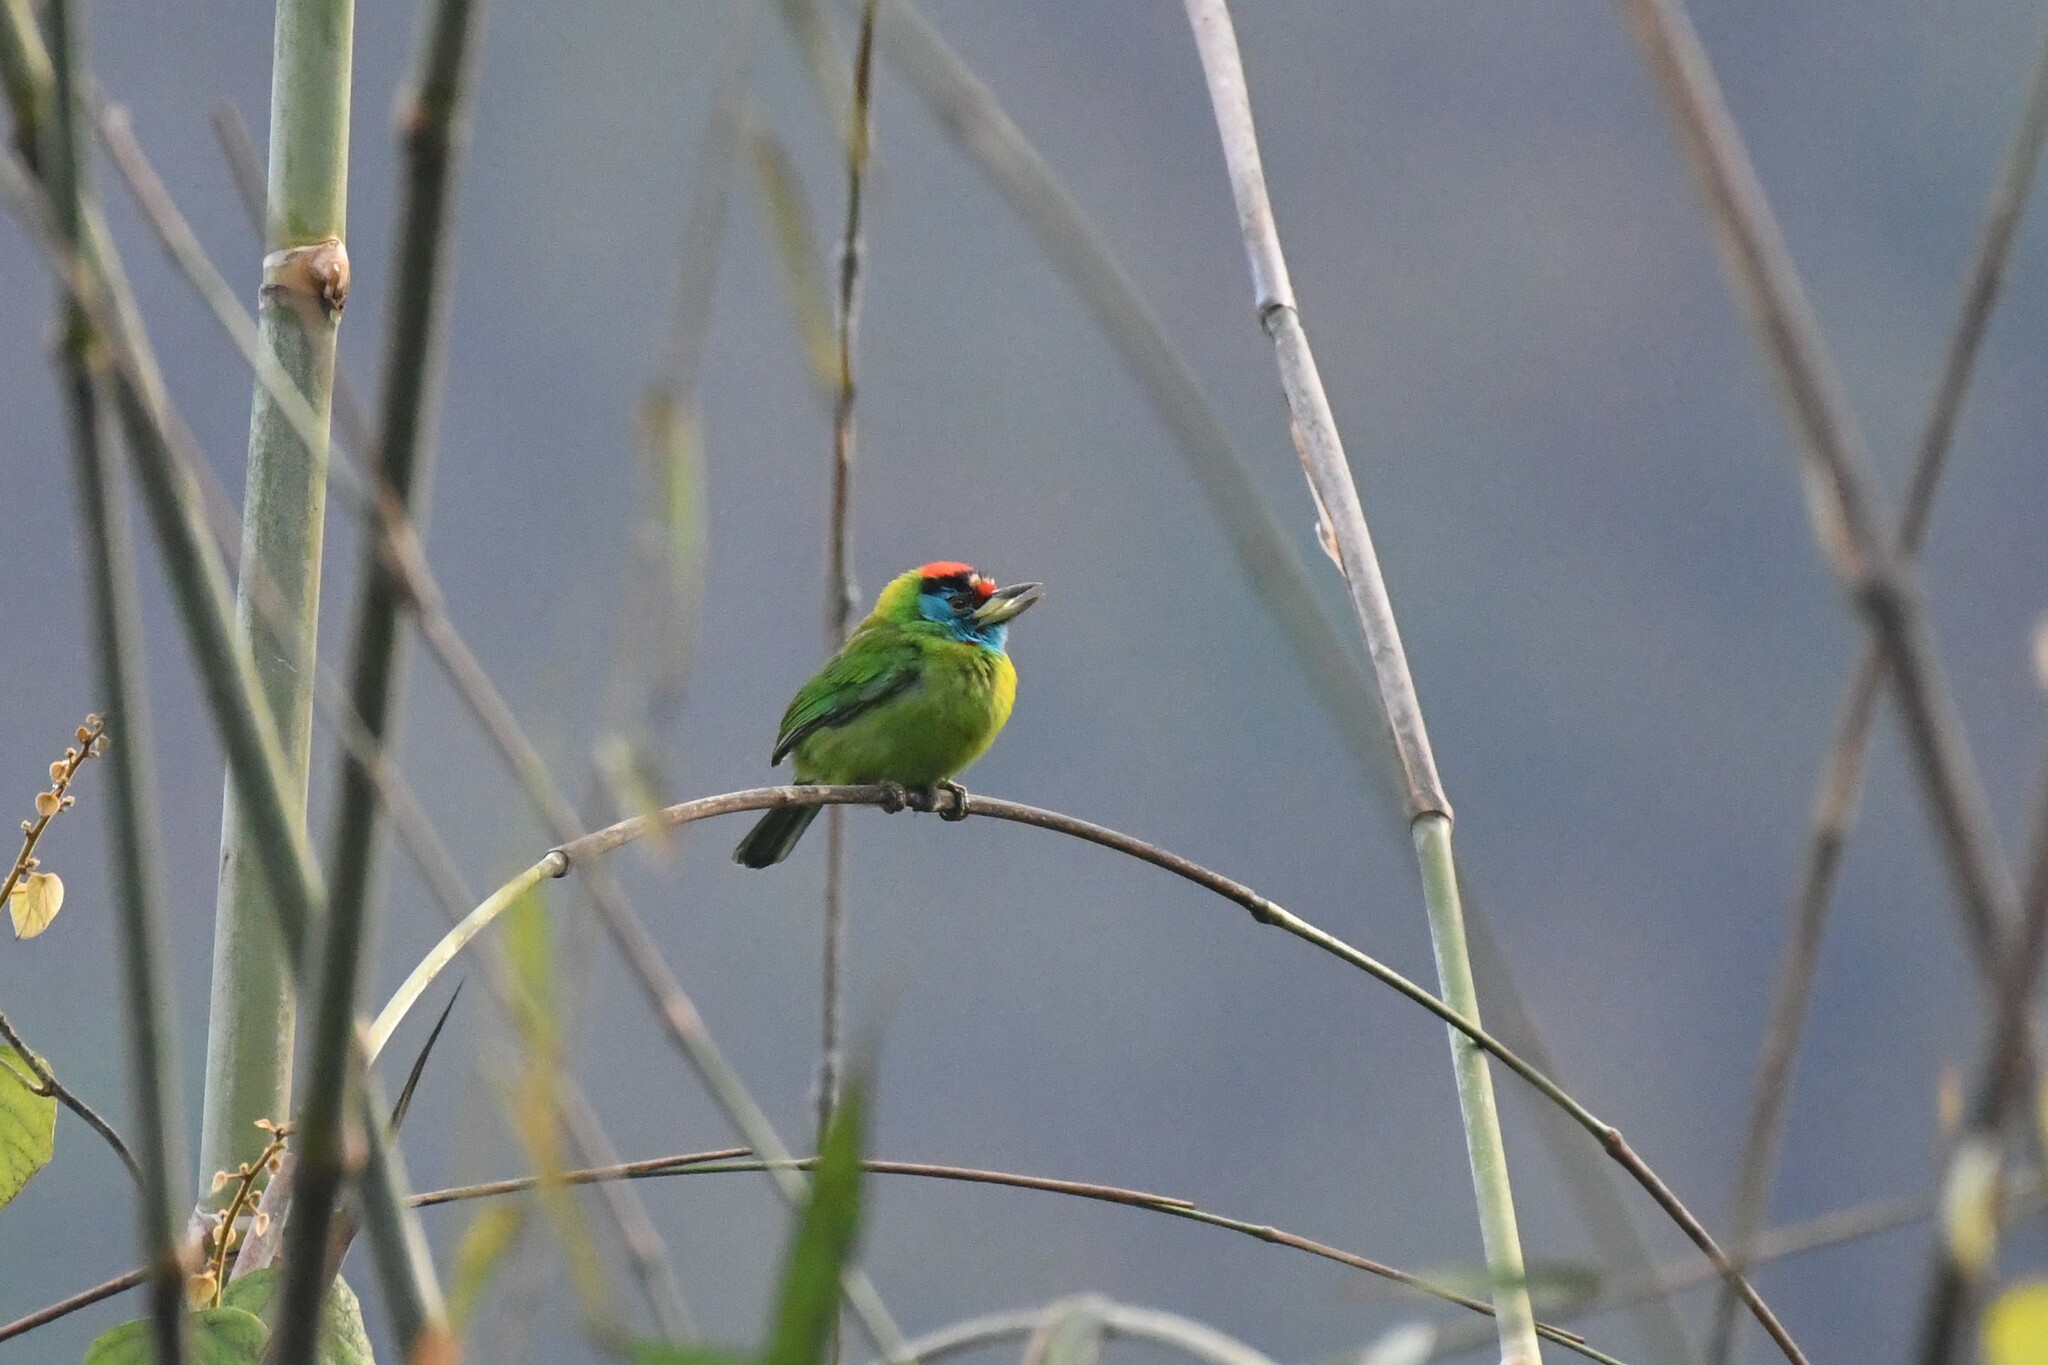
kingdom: Animalia
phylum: Chordata
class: Aves
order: Piciformes
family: Megalaimidae
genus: Psilopogon
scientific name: Psilopogon asiaticus
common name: Blue-throated barbet
